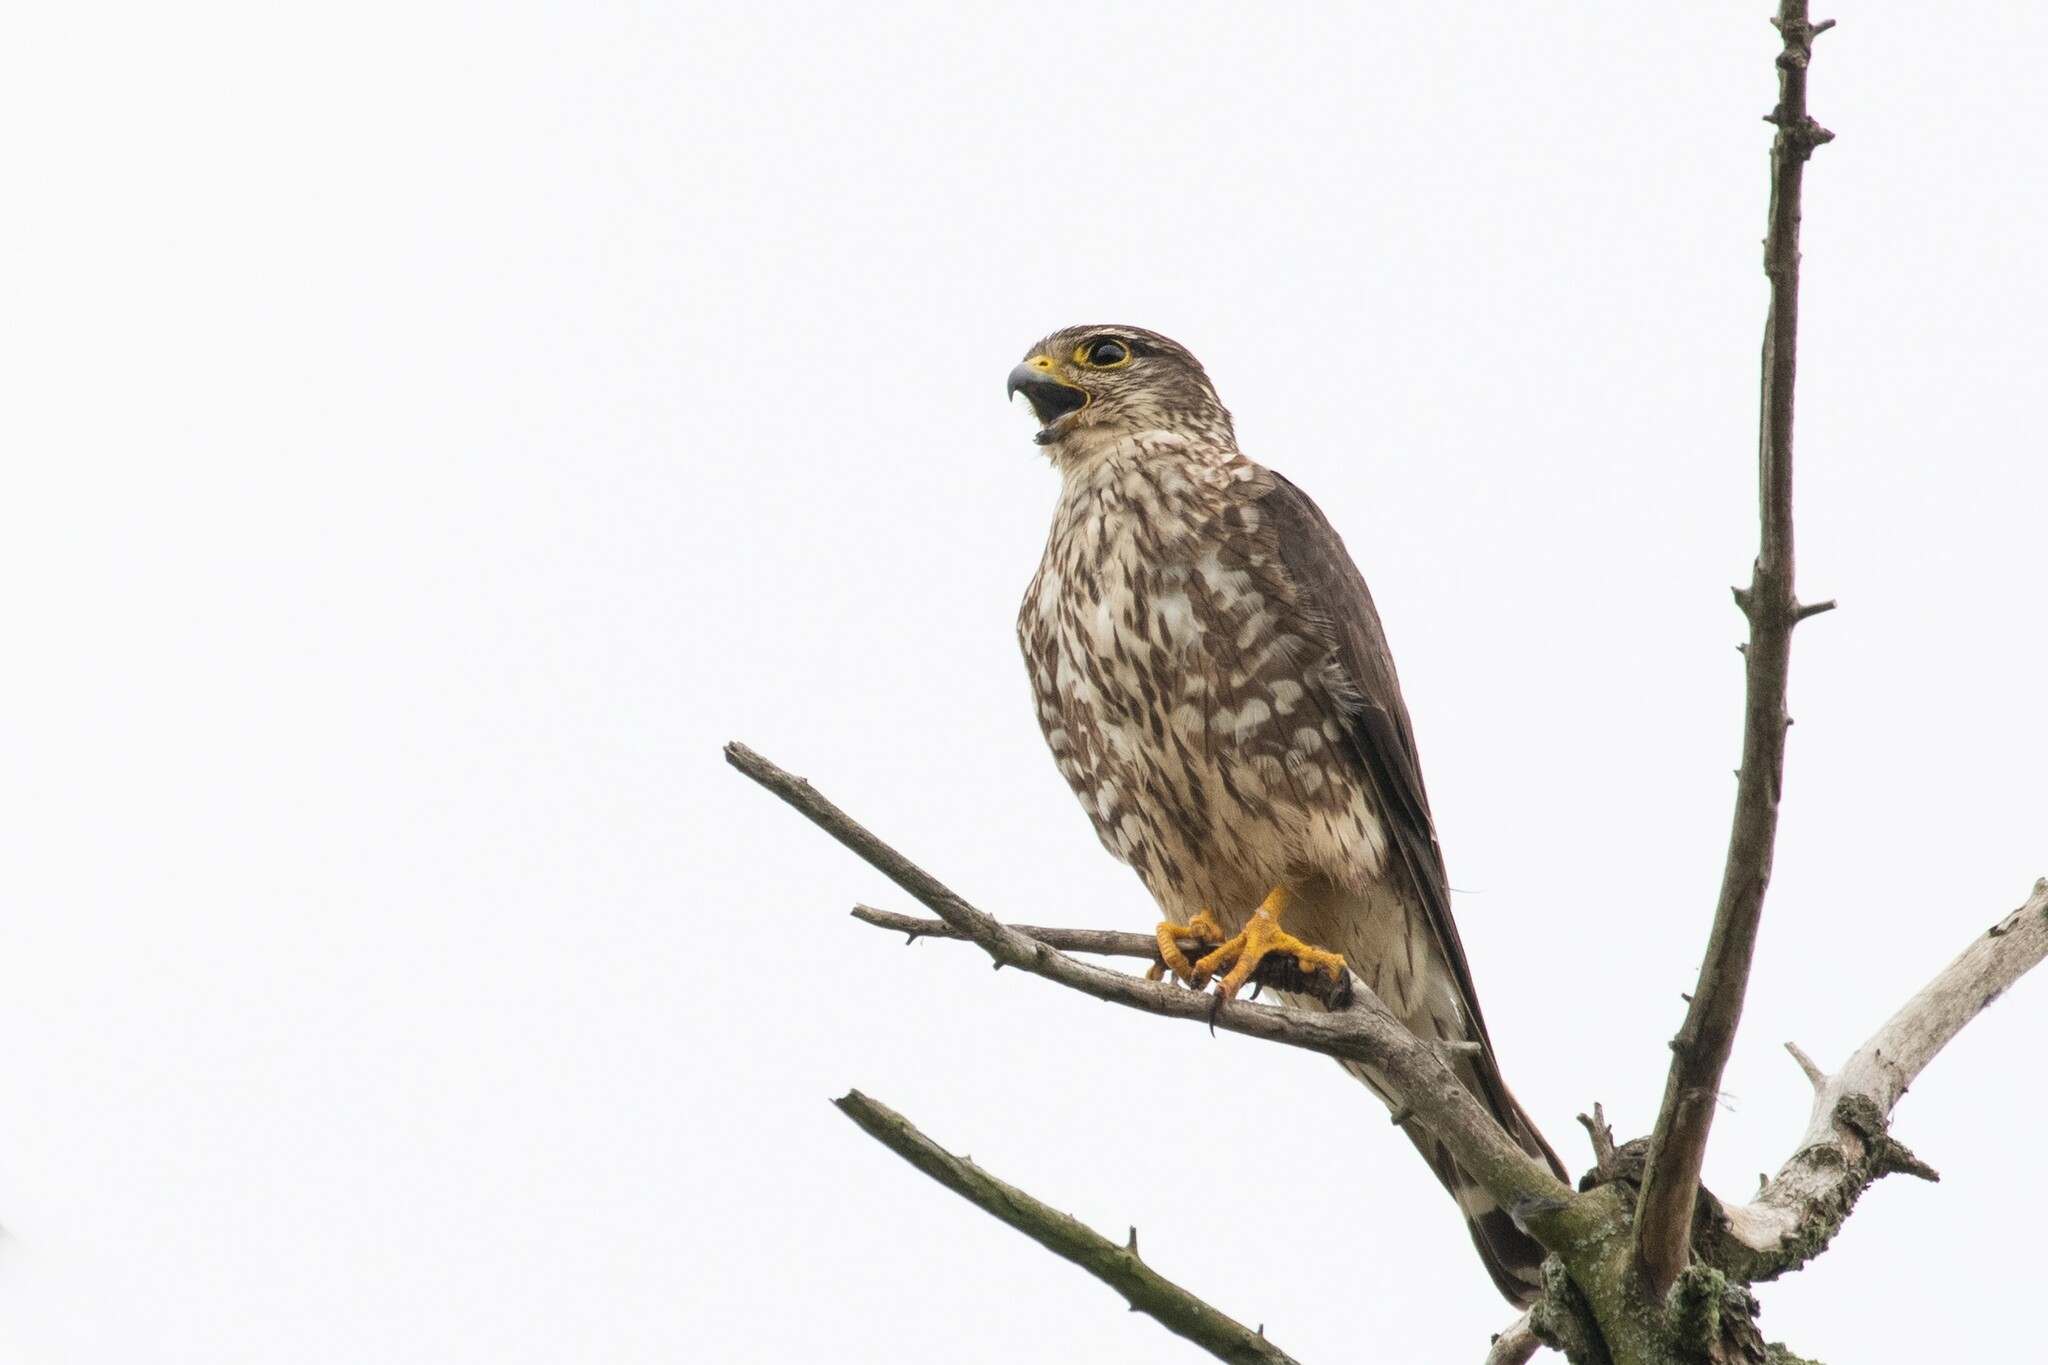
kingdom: Animalia
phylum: Chordata
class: Aves
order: Falconiformes
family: Falconidae
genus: Falco
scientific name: Falco columbarius
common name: Merlin
